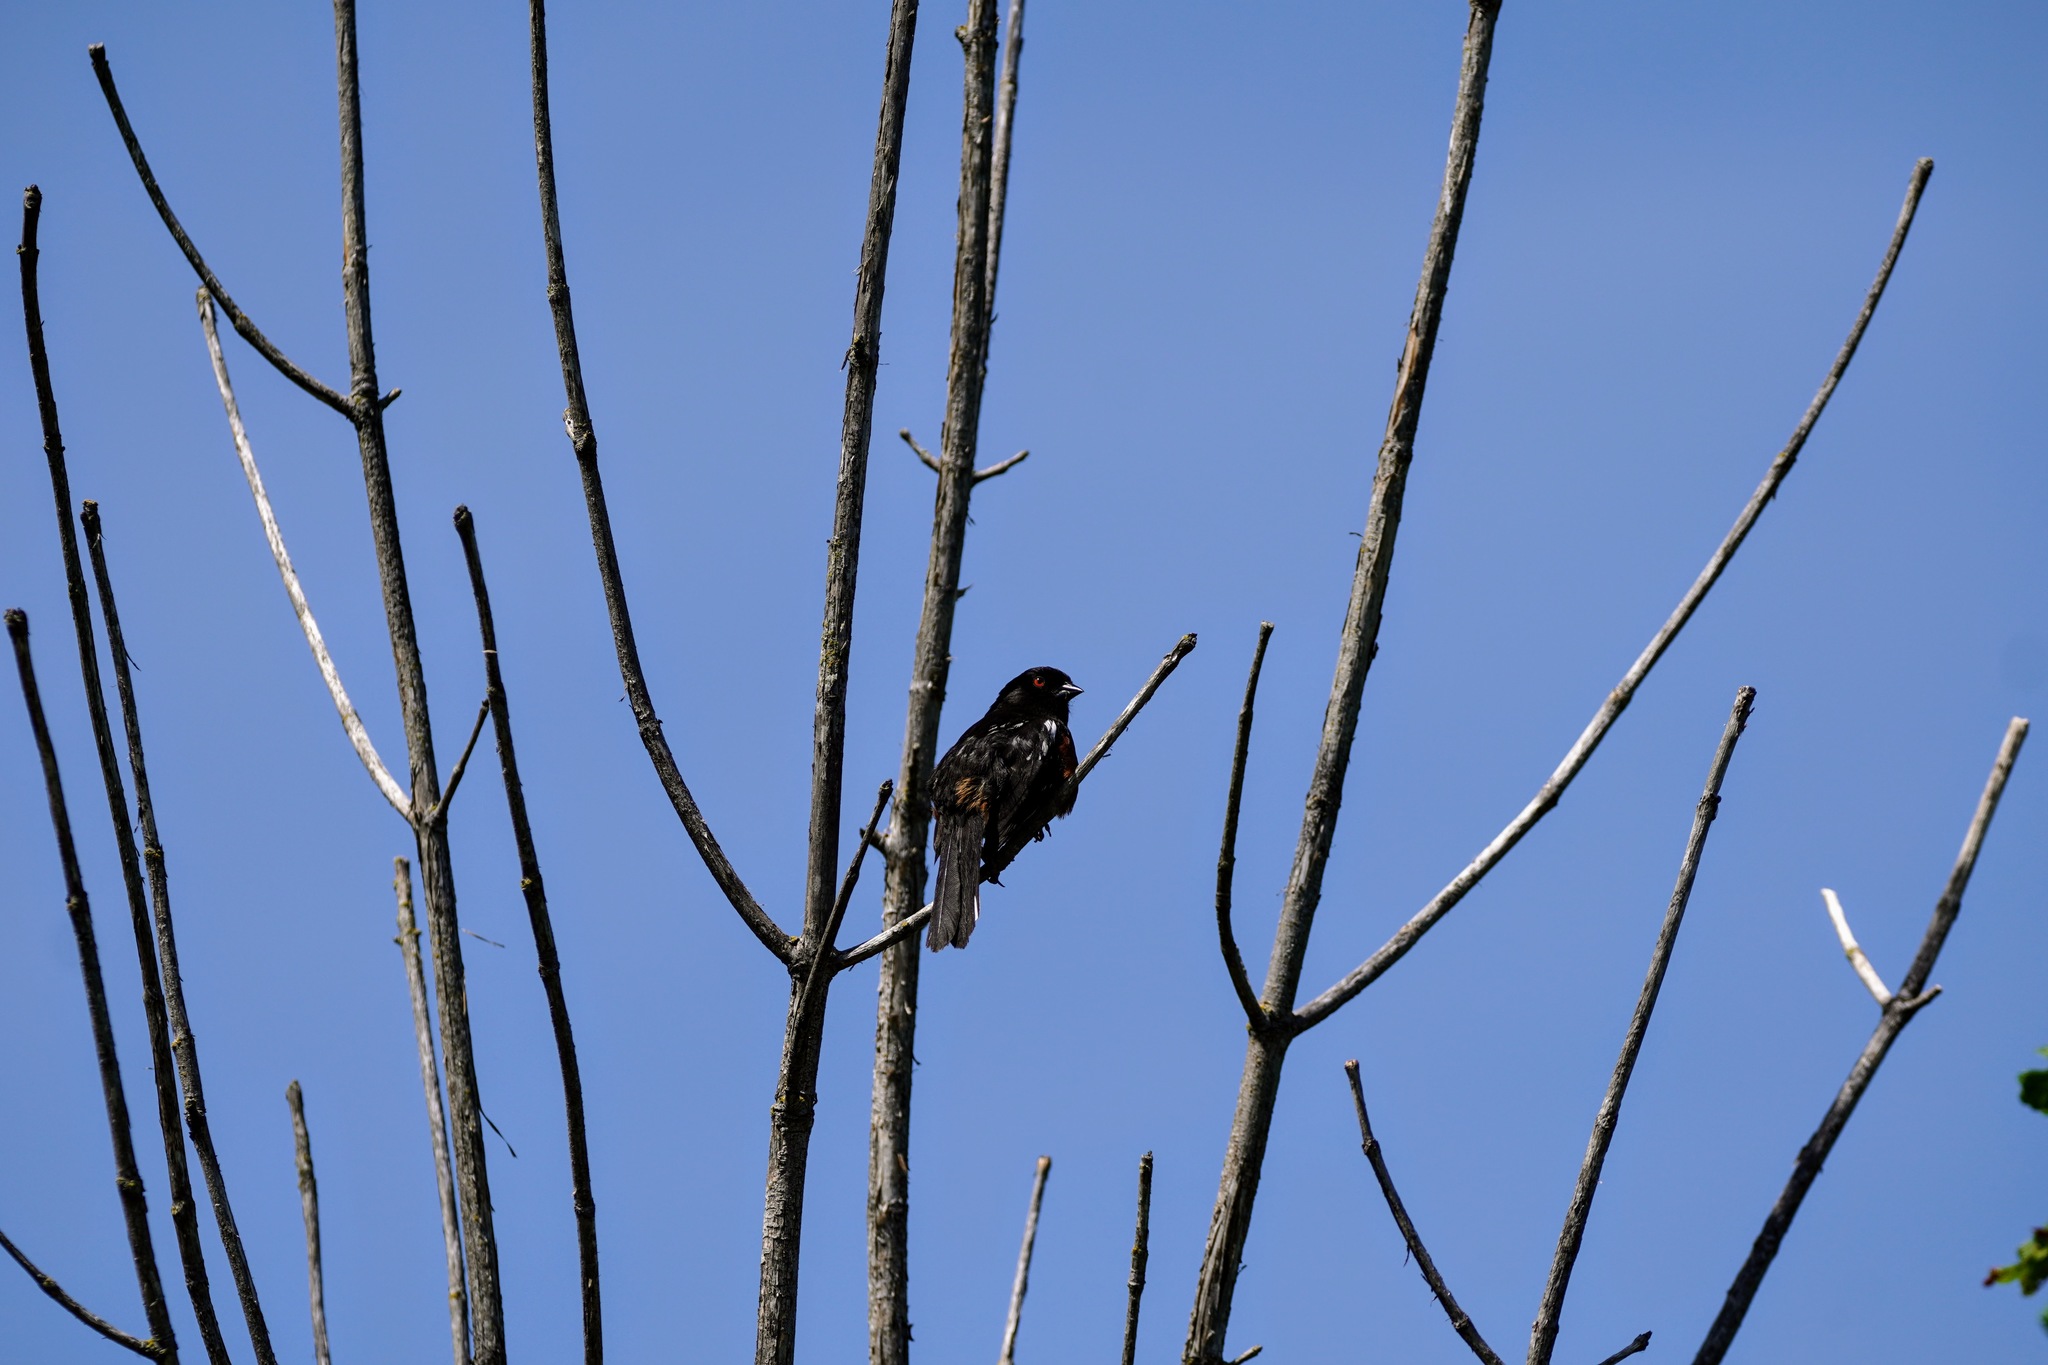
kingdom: Animalia
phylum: Chordata
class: Aves
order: Passeriformes
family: Passerellidae
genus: Pipilo
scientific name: Pipilo maculatus
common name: Spotted towhee
